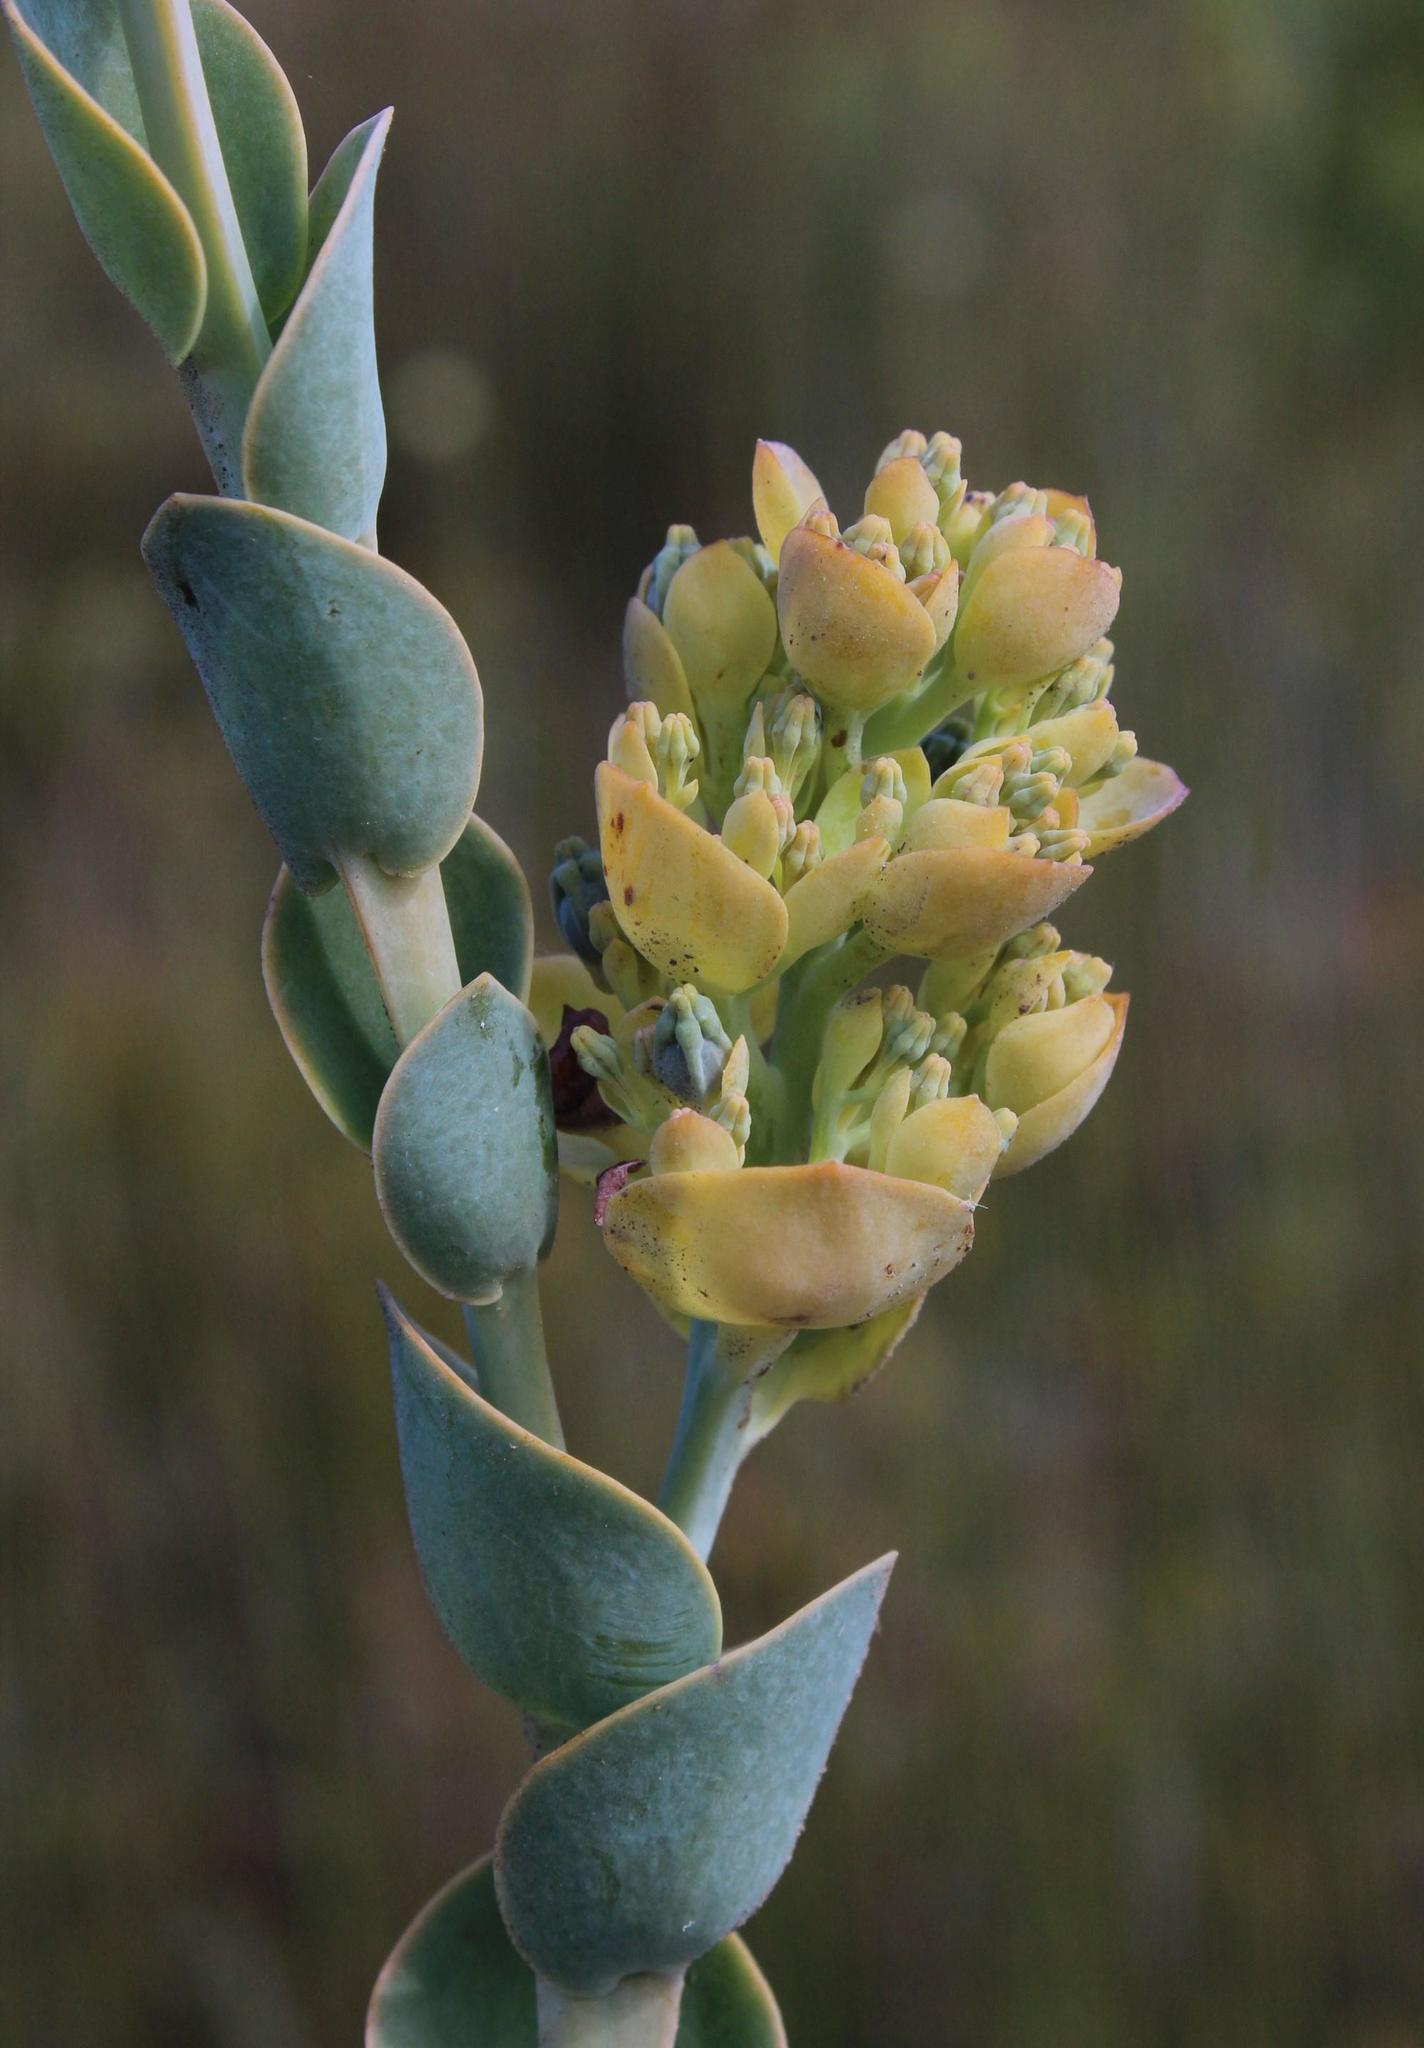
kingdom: Plantae
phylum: Tracheophyta
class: Magnoliopsida
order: Santalales
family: Thesiaceae
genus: Thesium
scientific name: Thesium euphorbioides
